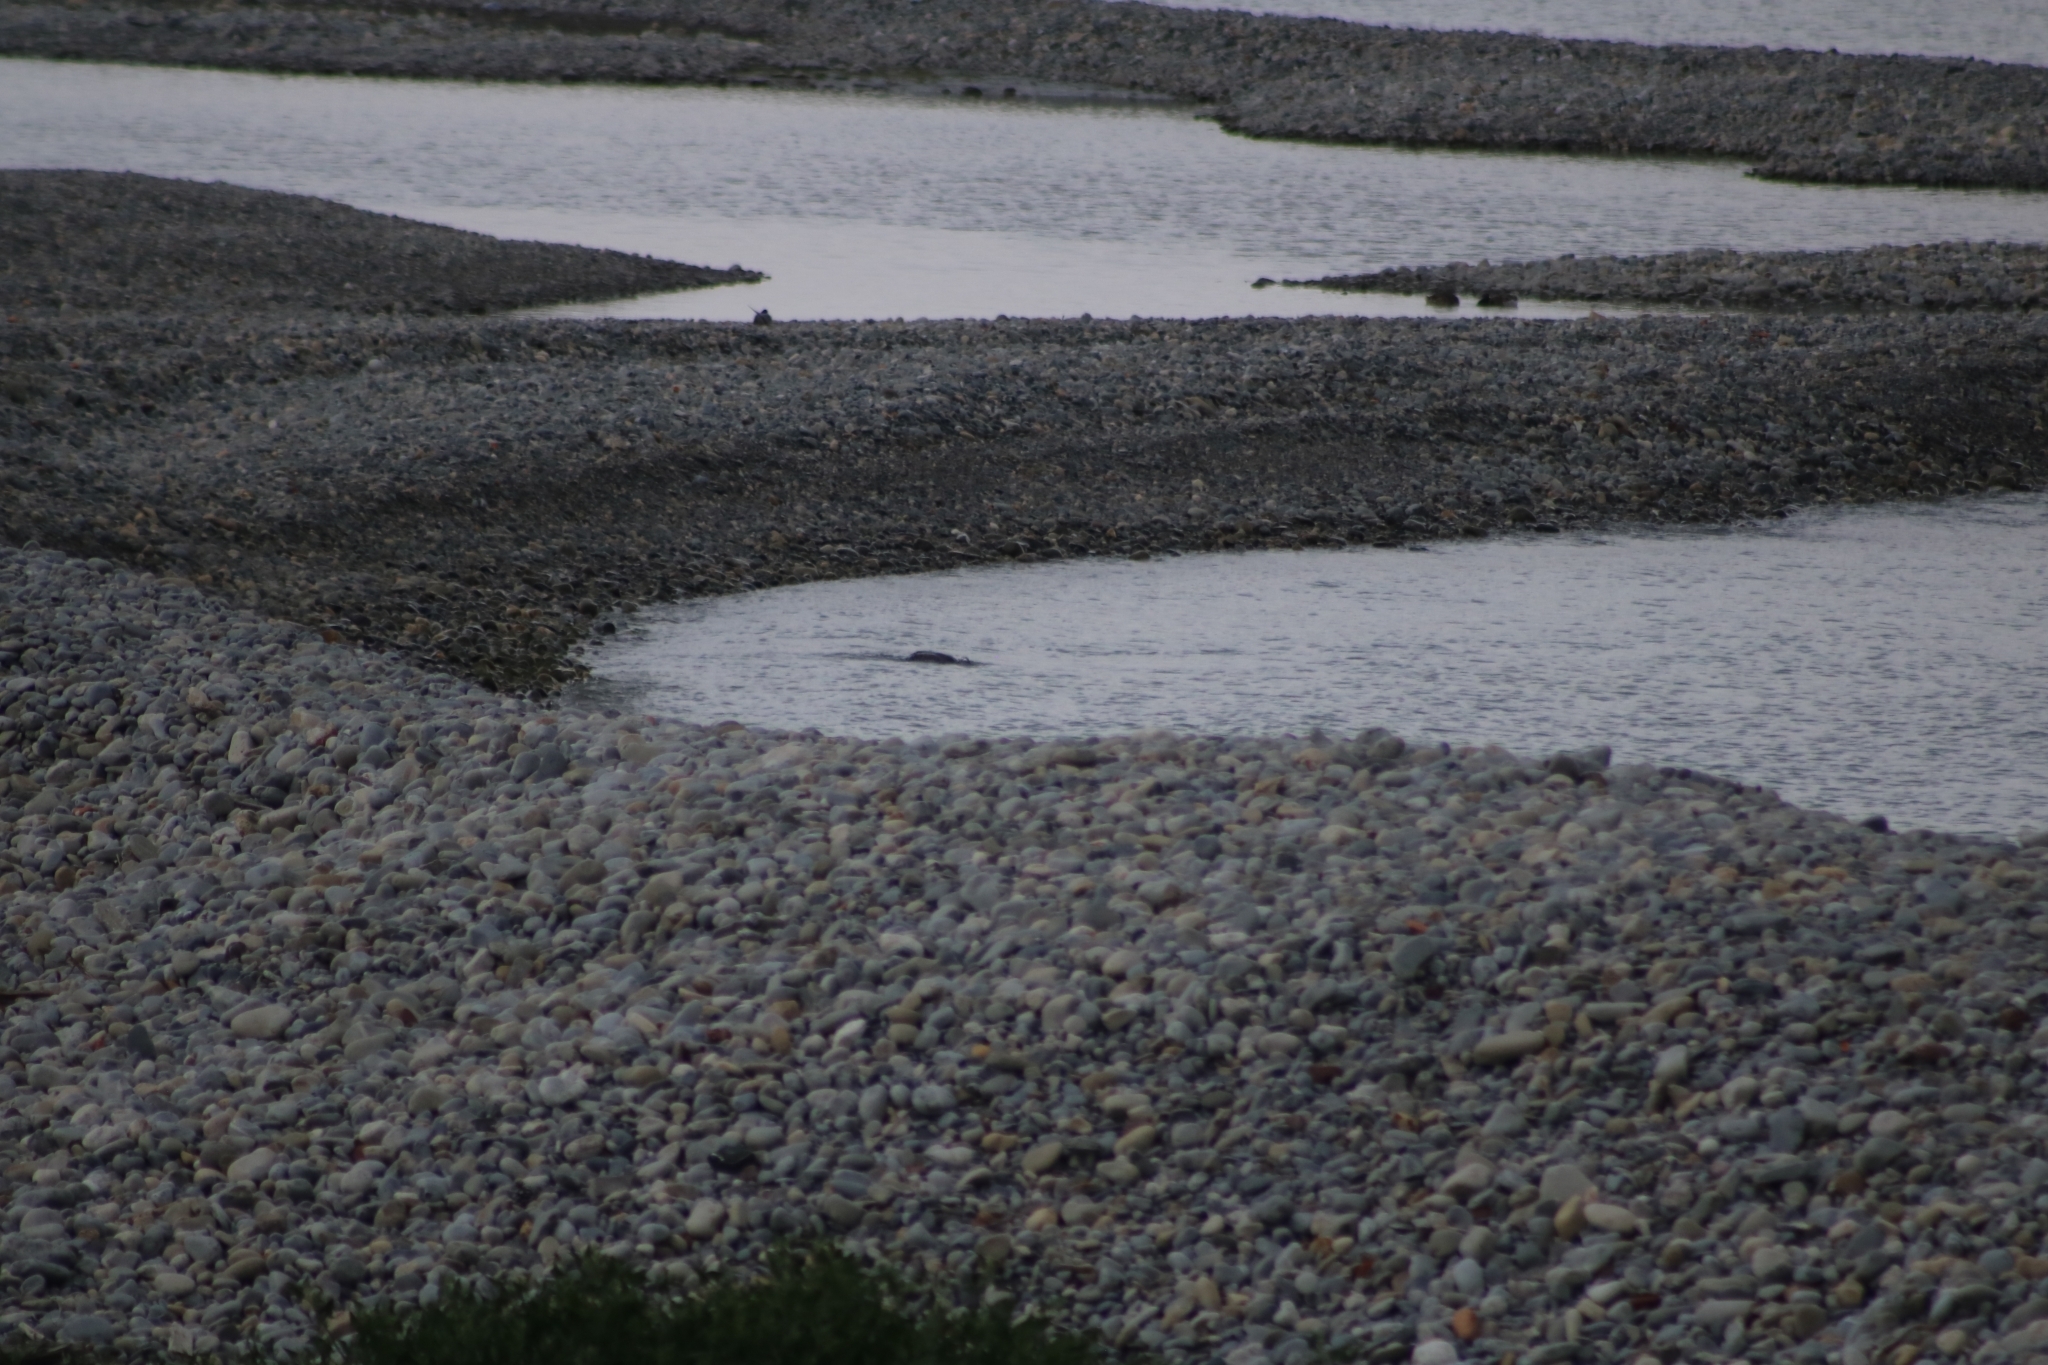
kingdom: Animalia
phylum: Chordata
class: Aves
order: Suliformes
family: Phalacrocoracidae
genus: Phalacrocorax
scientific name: Phalacrocorax carbo
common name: Great cormorant
